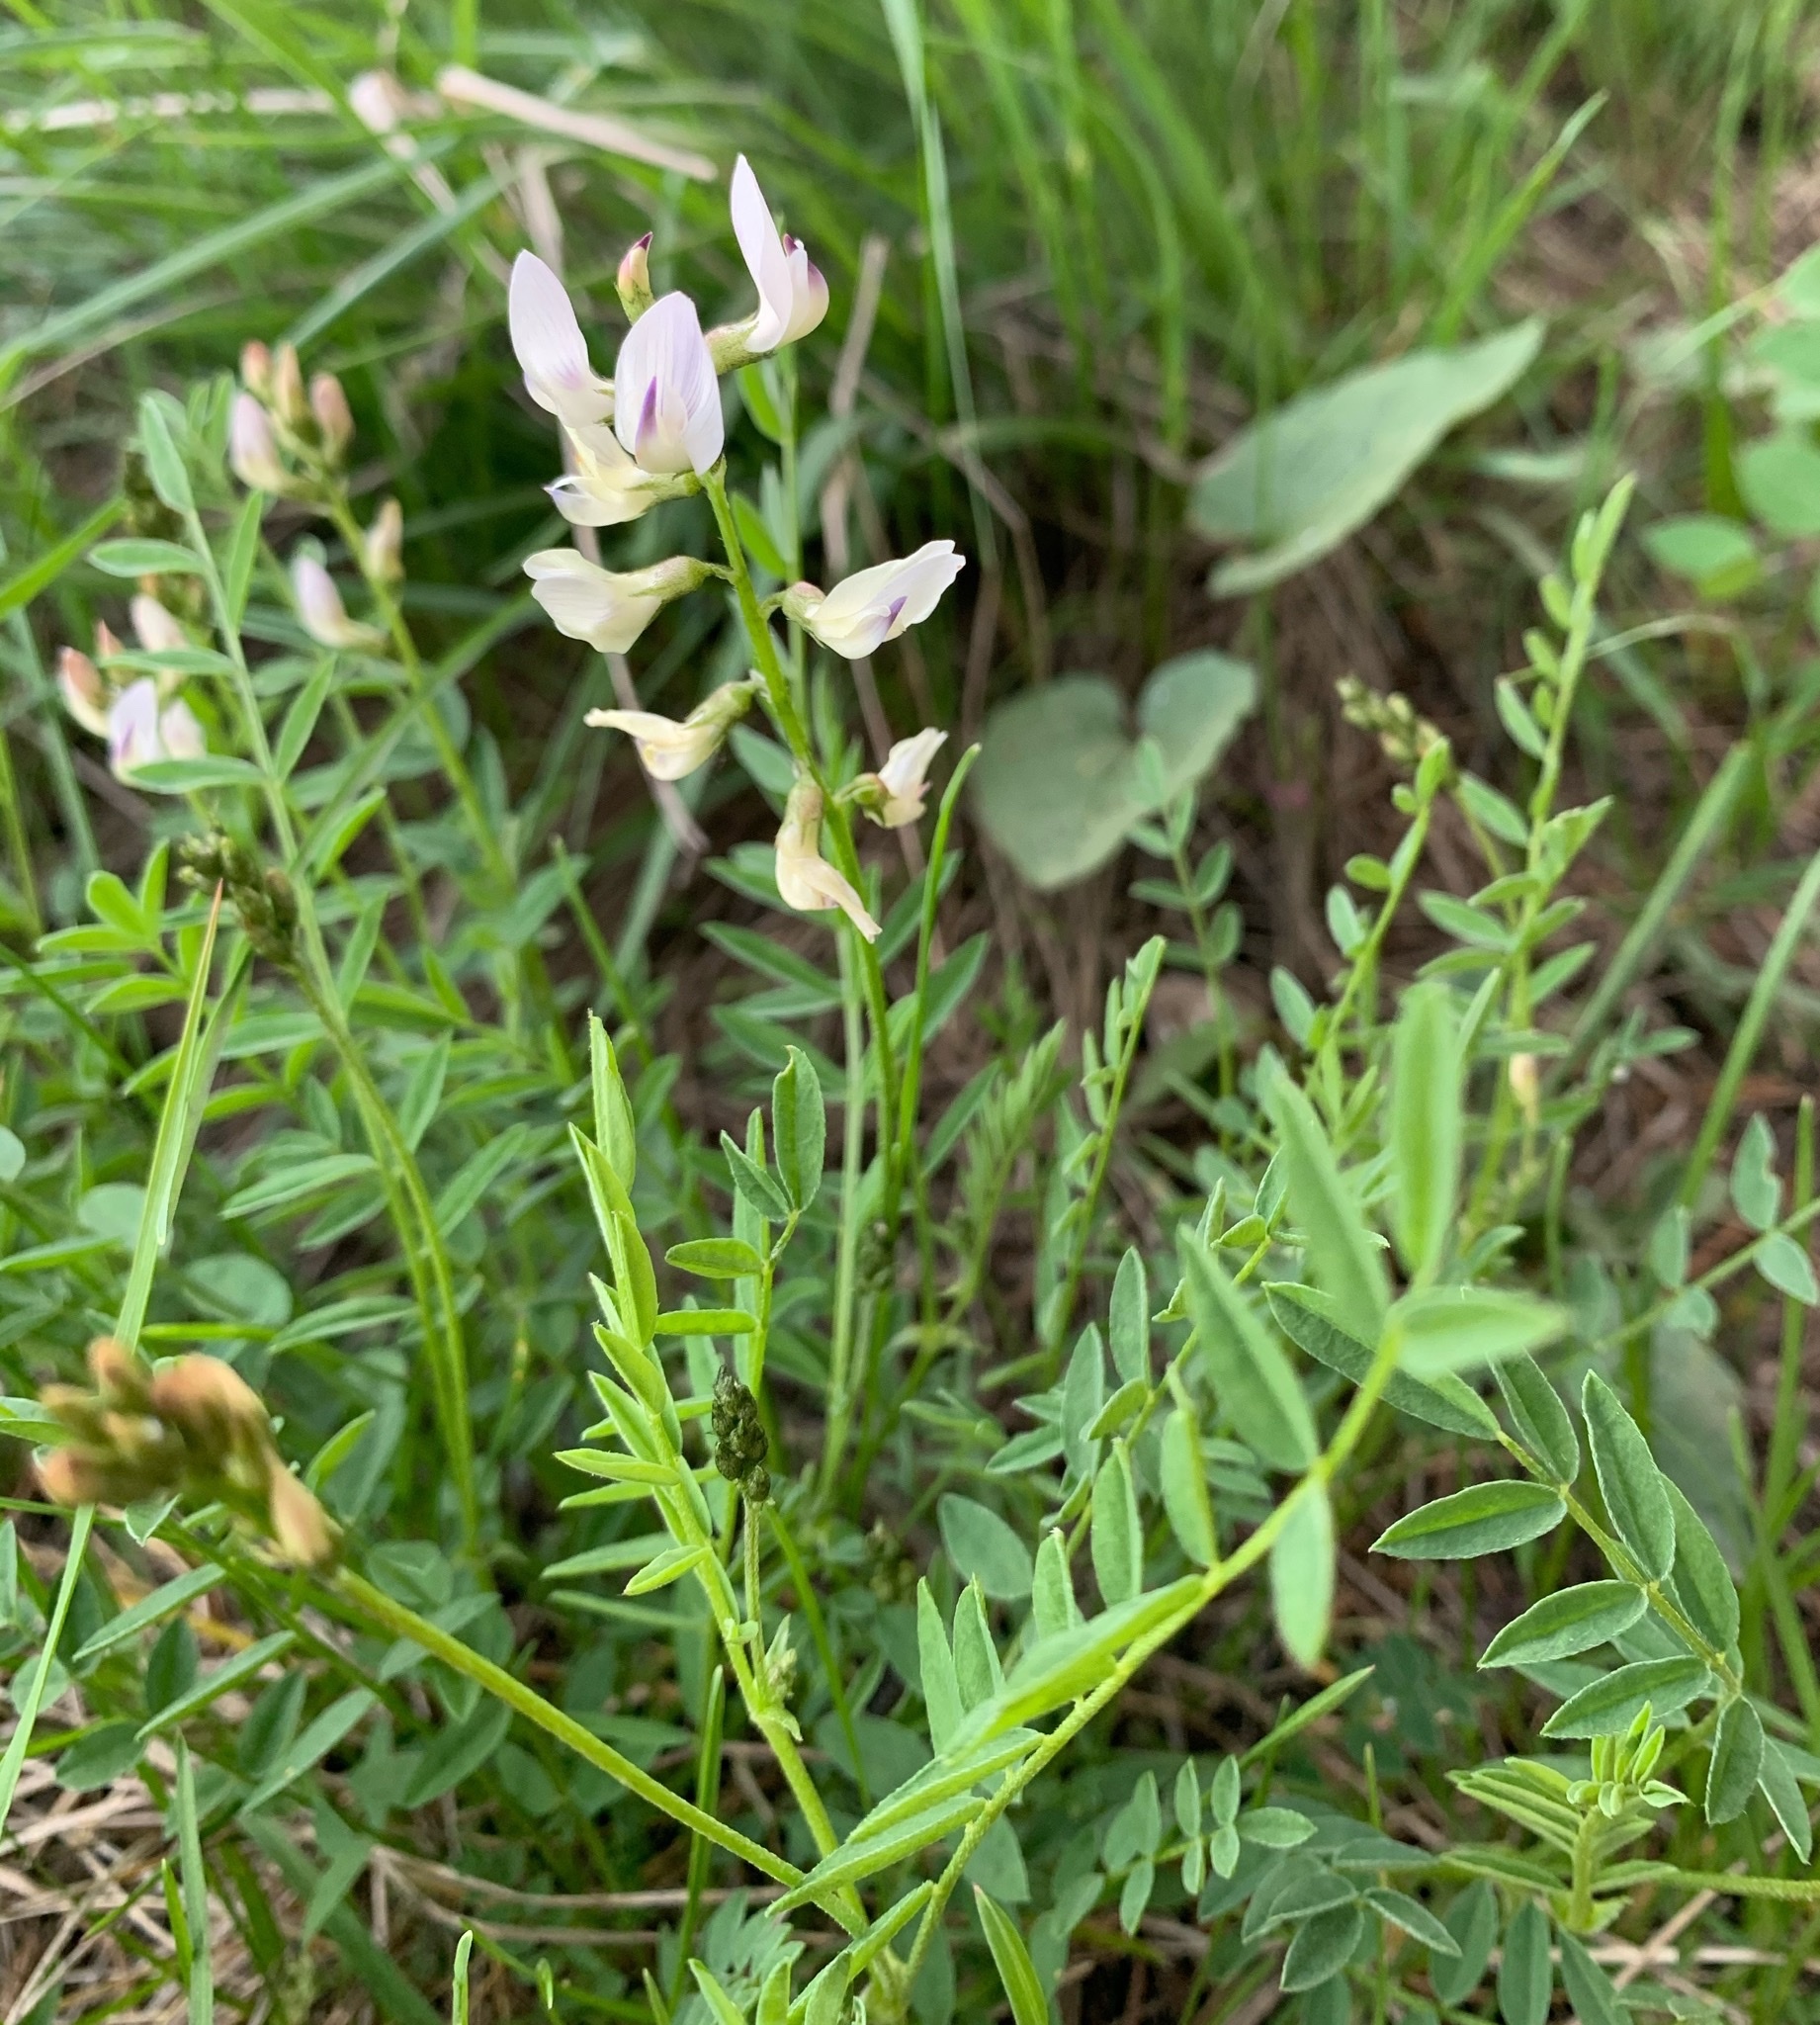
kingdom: Plantae
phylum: Tracheophyta
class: Magnoliopsida
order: Fabales
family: Fabaceae
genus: Astragalus
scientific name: Astragalus miser
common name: Timber milkvetch
